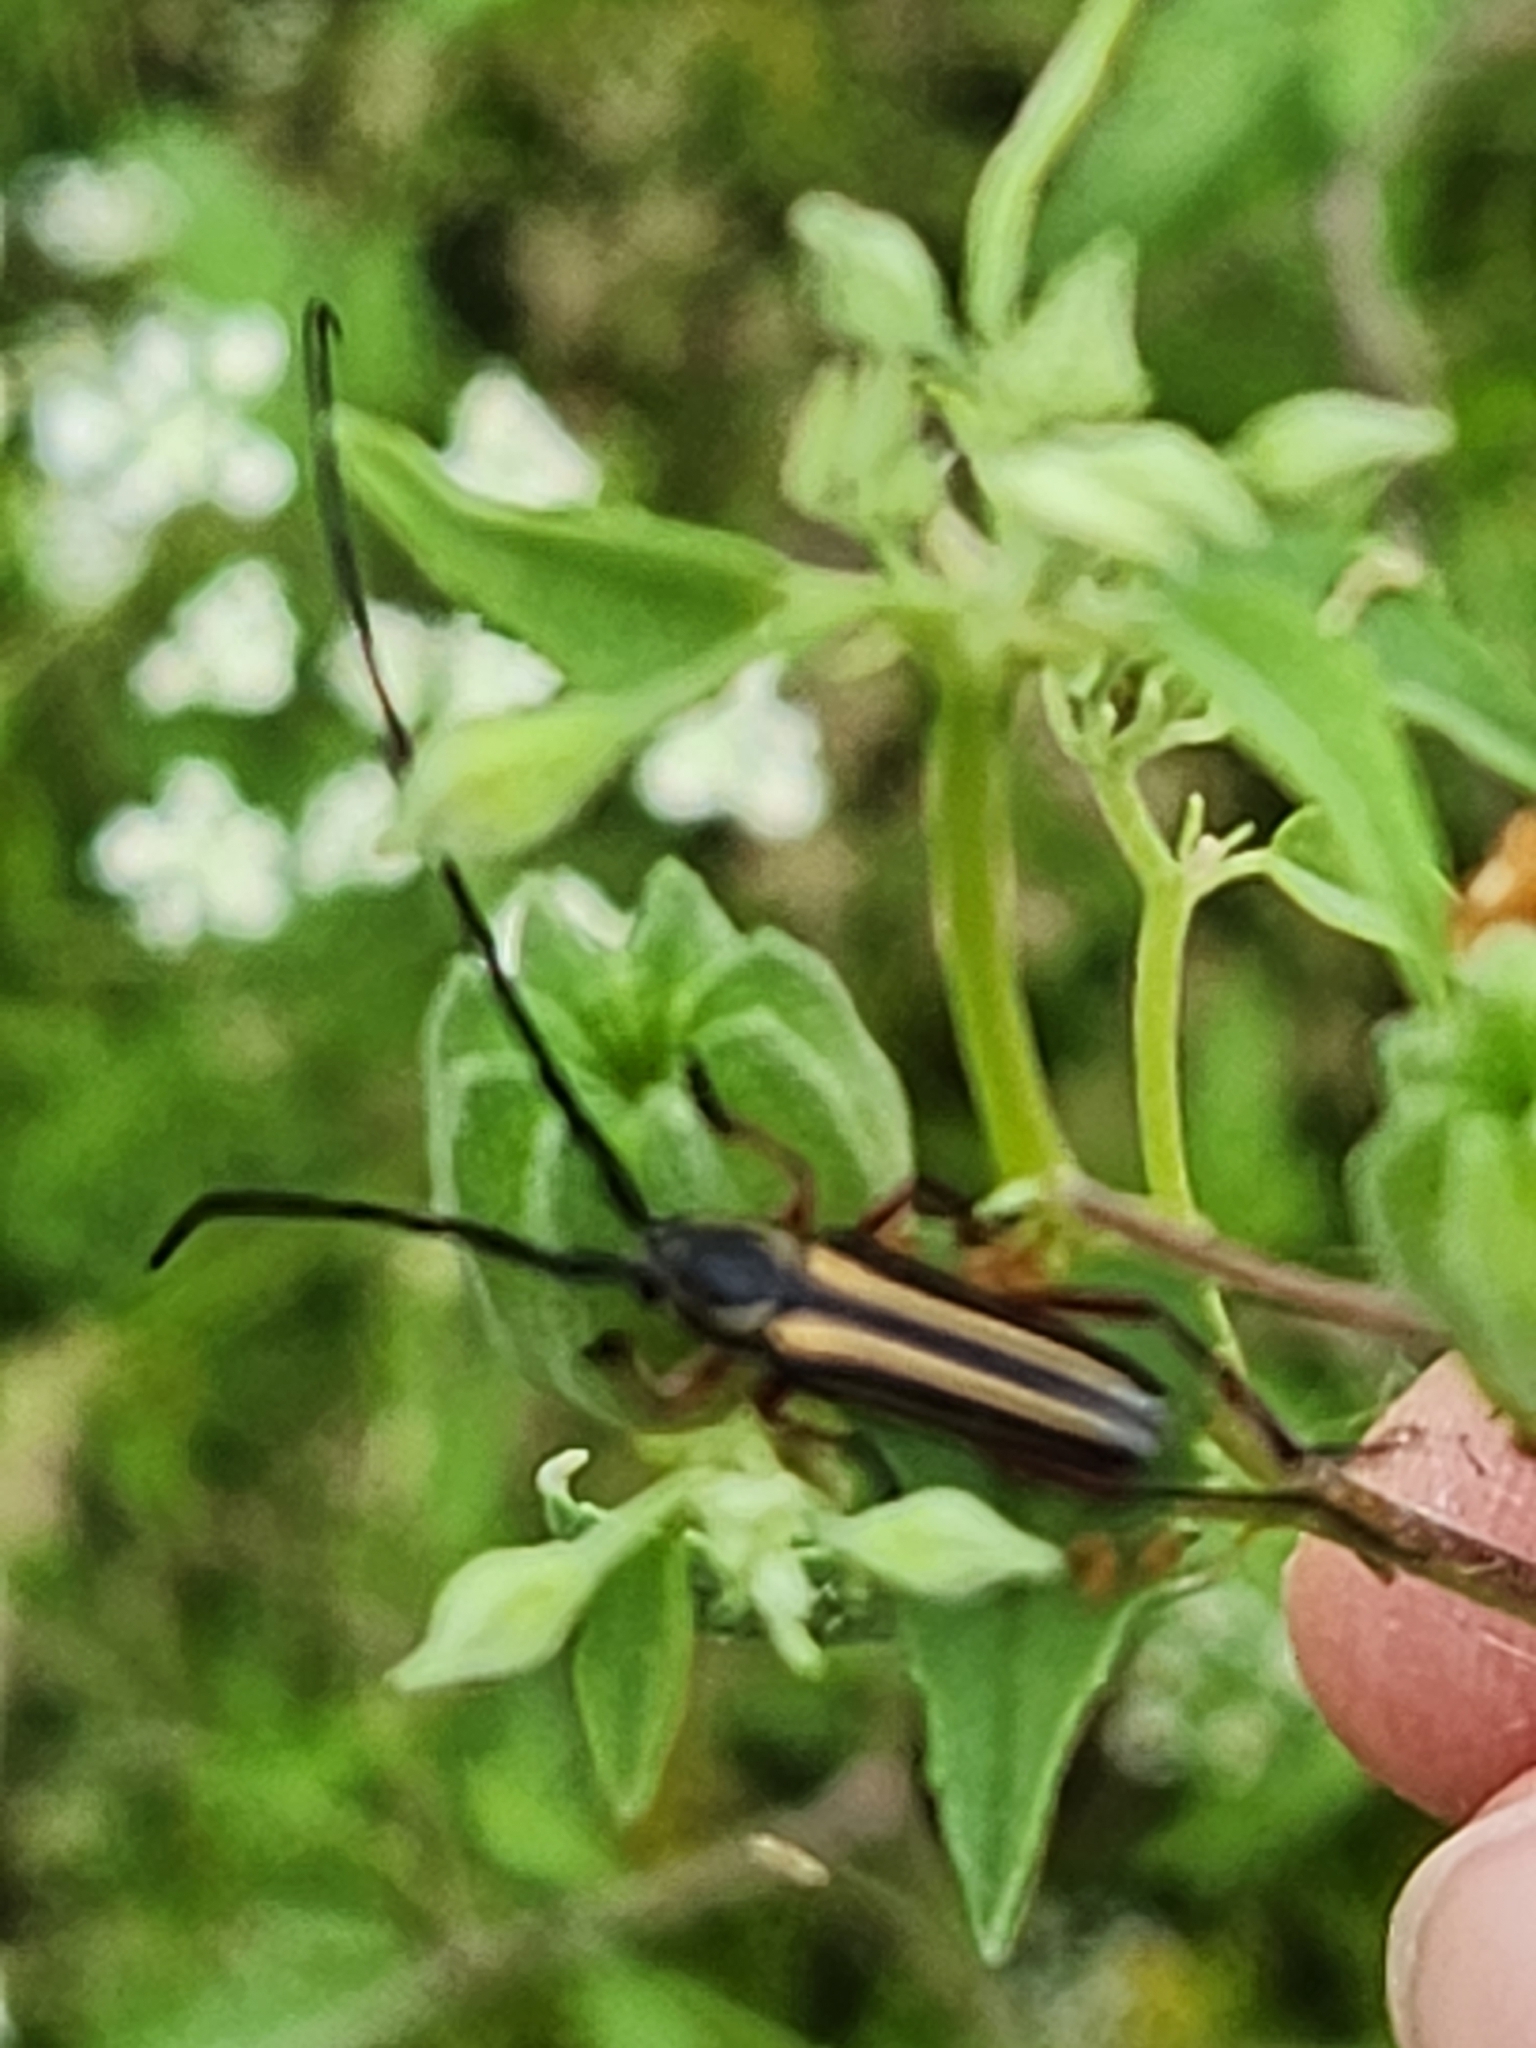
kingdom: Animalia
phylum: Arthropoda
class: Insecta
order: Coleoptera
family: Cerambycidae
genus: Sphaenothecus
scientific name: Sphaenothecus bilineatus
